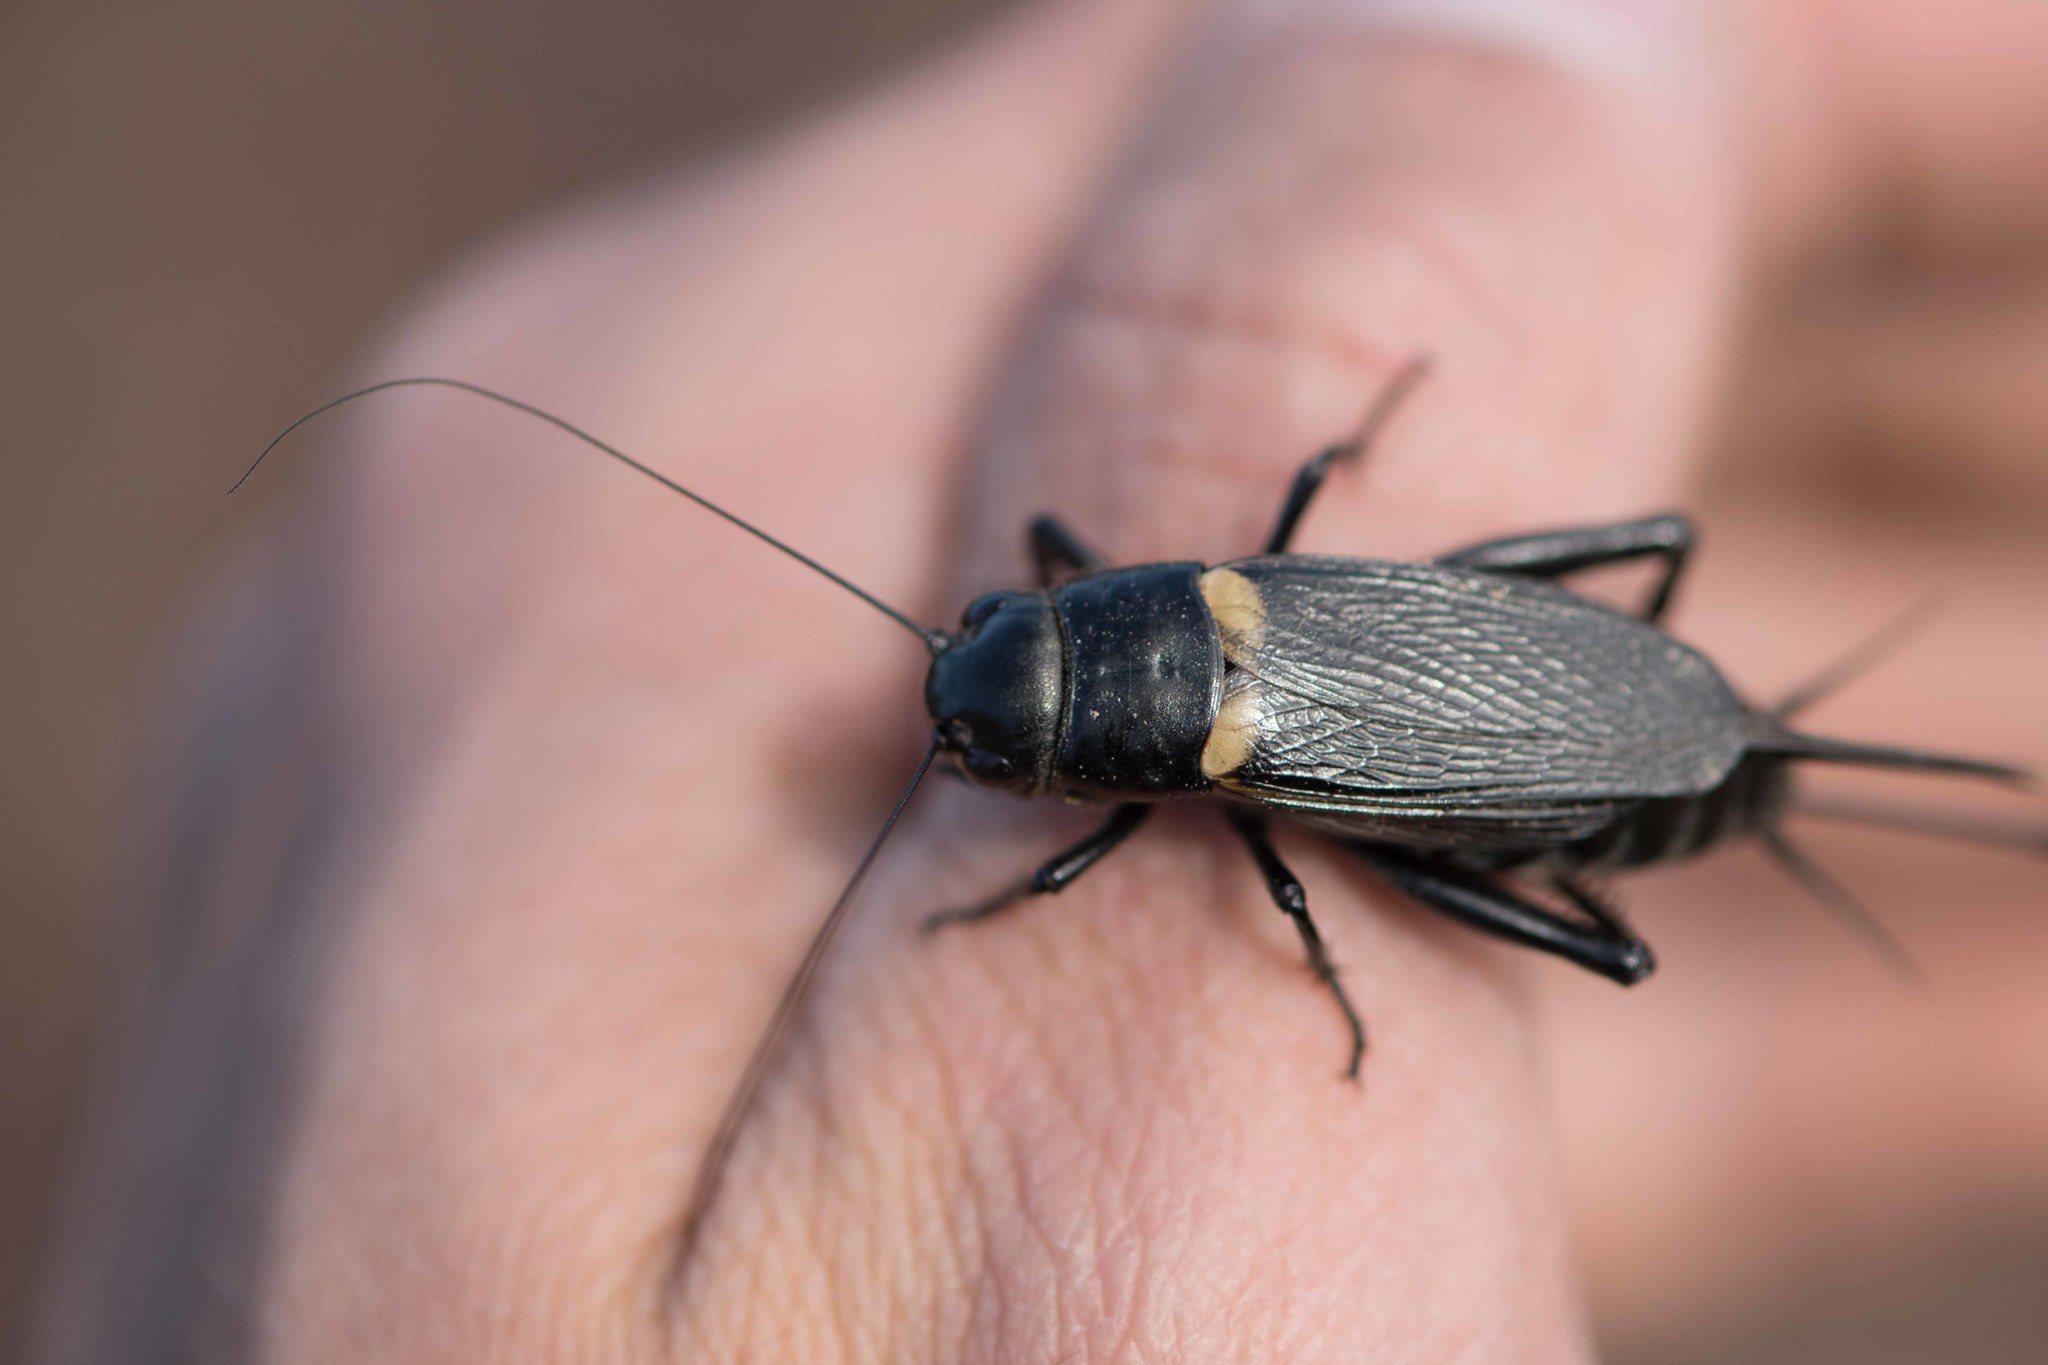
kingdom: Animalia
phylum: Arthropoda
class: Insecta
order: Orthoptera
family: Gryllidae
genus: Gryllus
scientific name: Gryllus bimaculatus
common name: Two-spotted cricket
